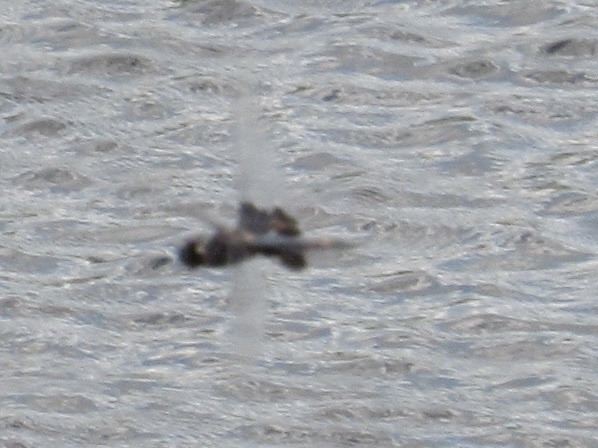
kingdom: Animalia
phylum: Arthropoda
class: Insecta
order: Odonata
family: Libellulidae
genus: Tramea
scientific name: Tramea lacerata
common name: Black saddlebags
